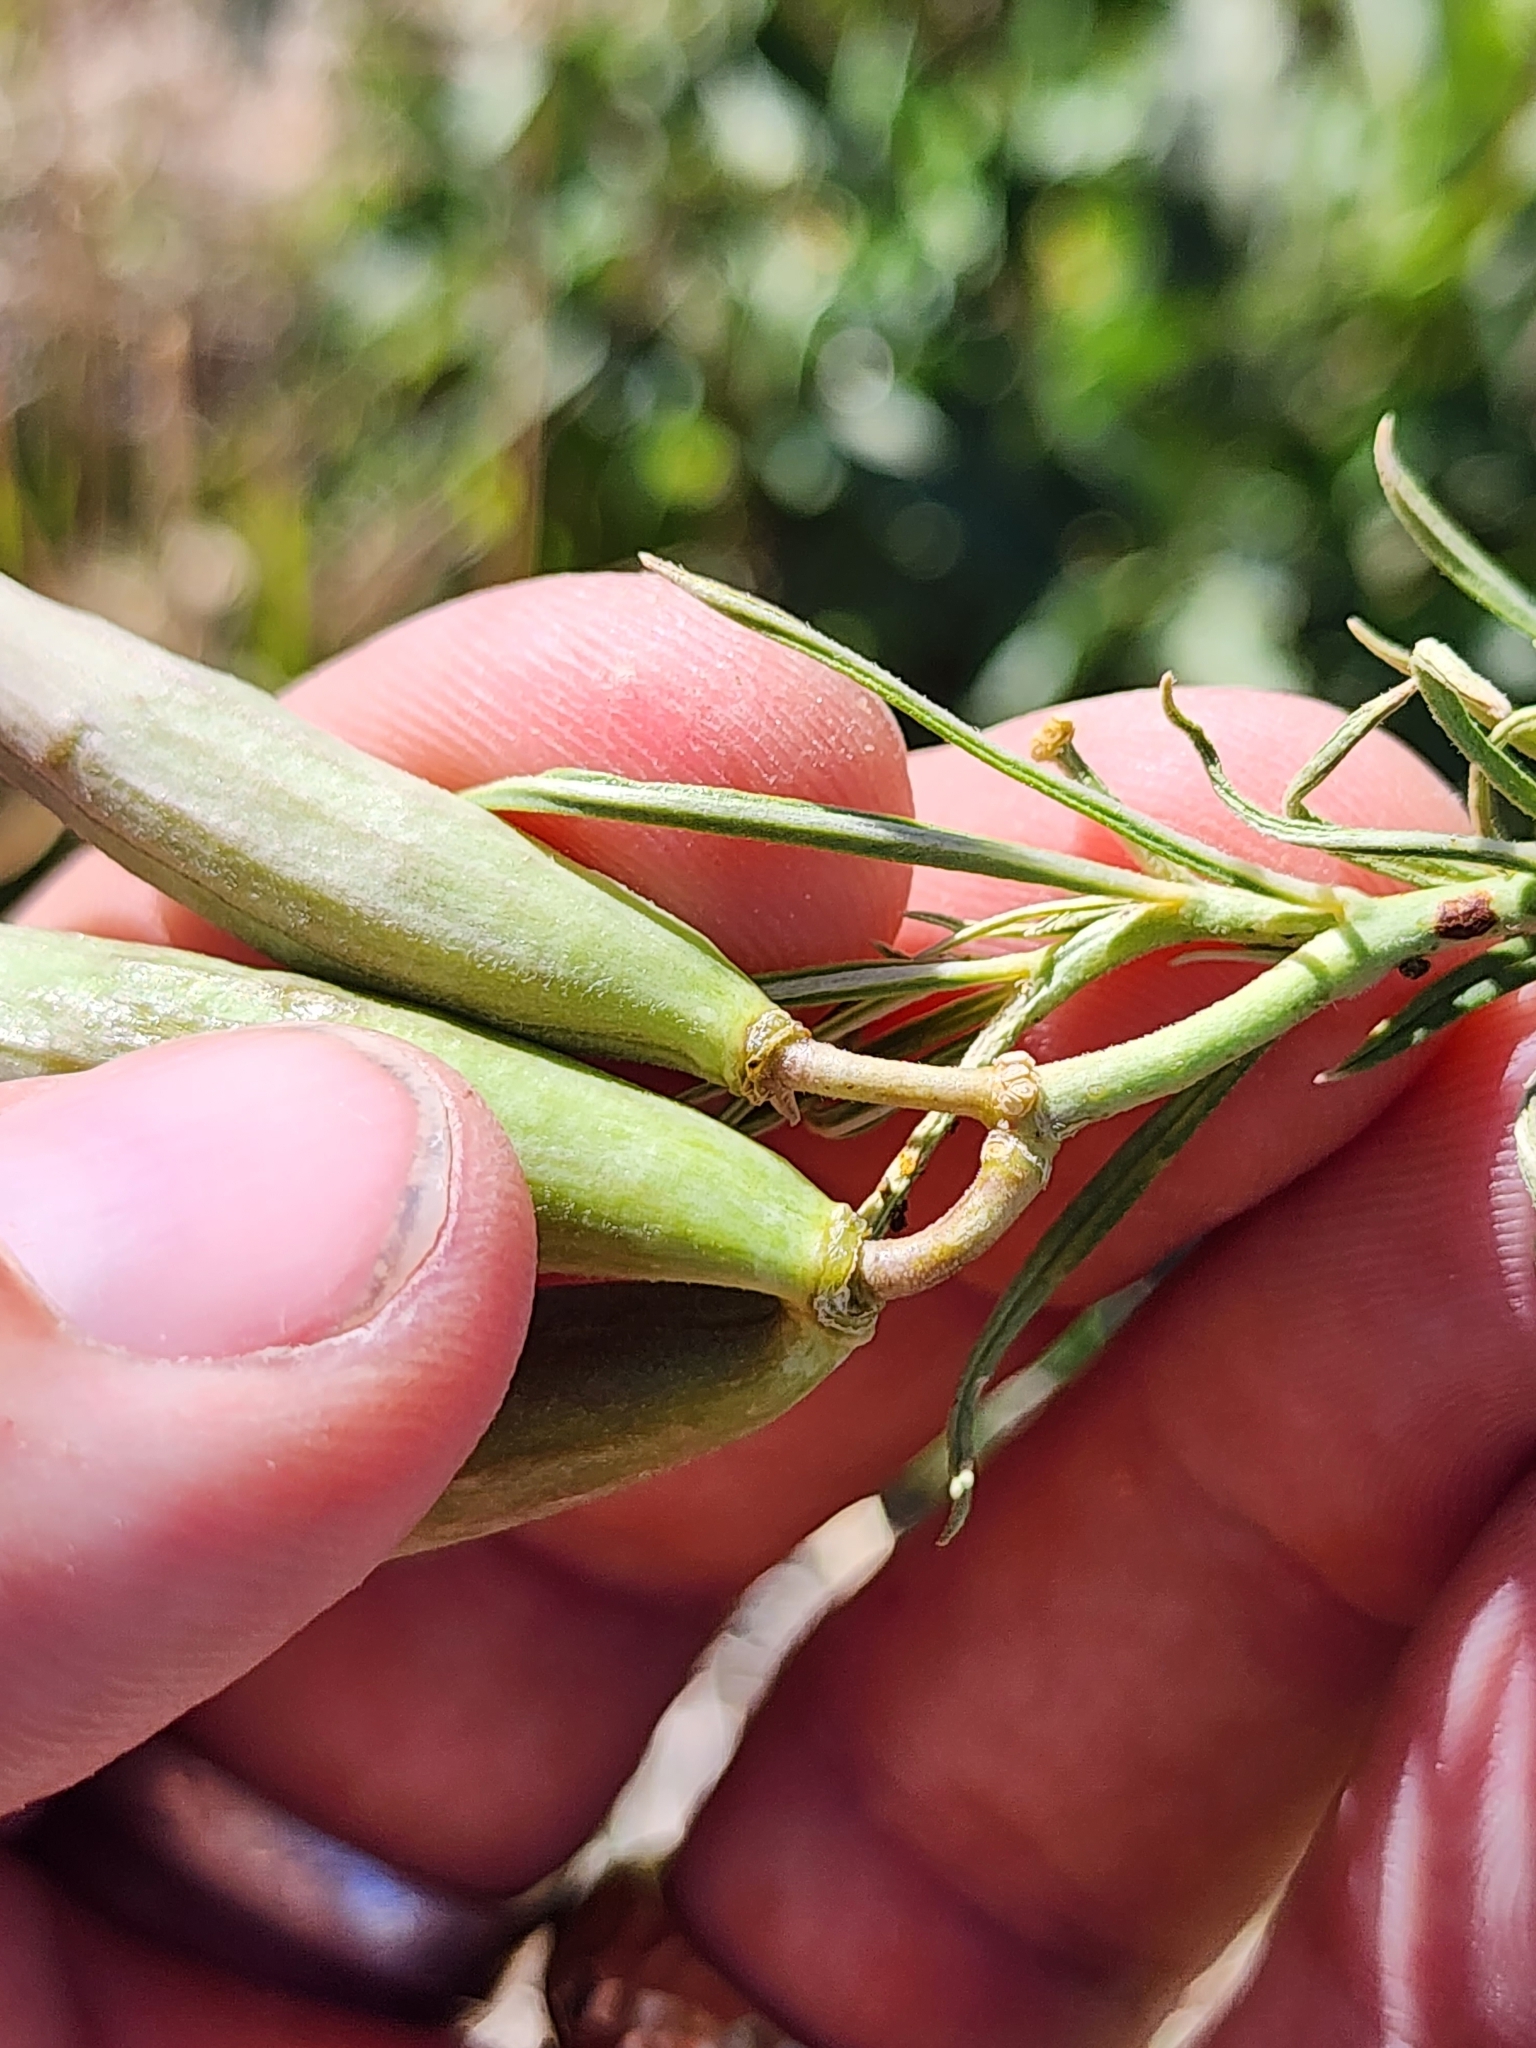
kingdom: Plantae
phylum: Tracheophyta
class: Magnoliopsida
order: Gentianales
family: Apocynaceae
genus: Asclepias
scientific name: Asclepias subverticillata
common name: Horsetail milkweed
